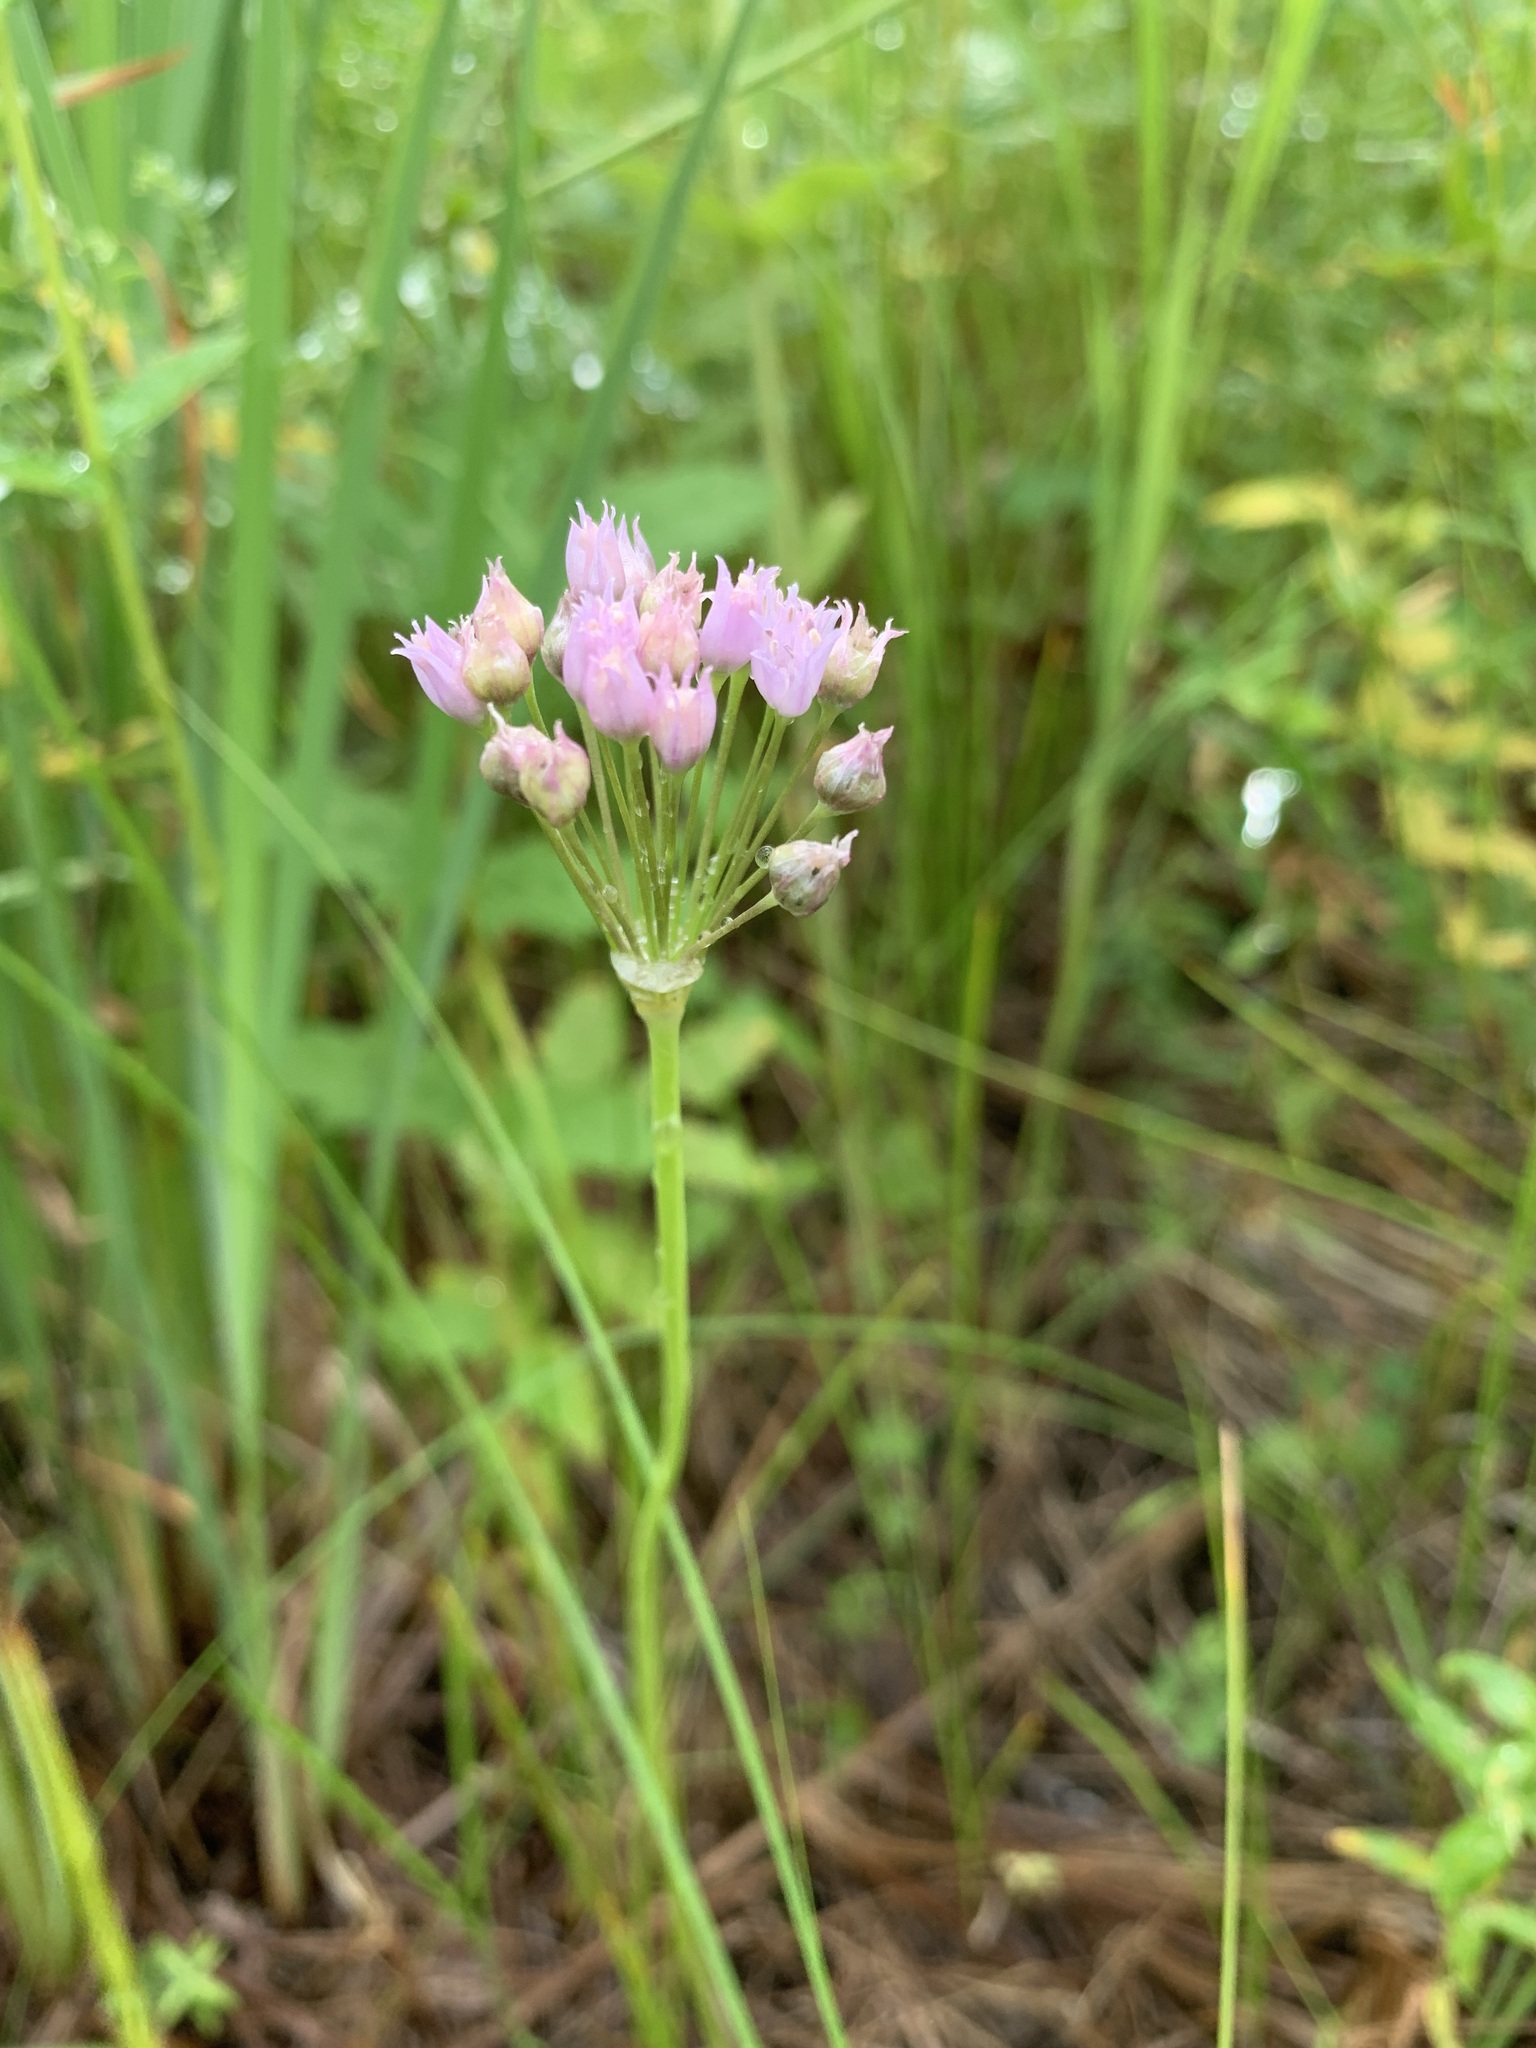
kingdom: Plantae
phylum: Tracheophyta
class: Liliopsida
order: Asparagales
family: Amaryllidaceae
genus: Allium
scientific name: Allium angulosum
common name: Mouse garlic
